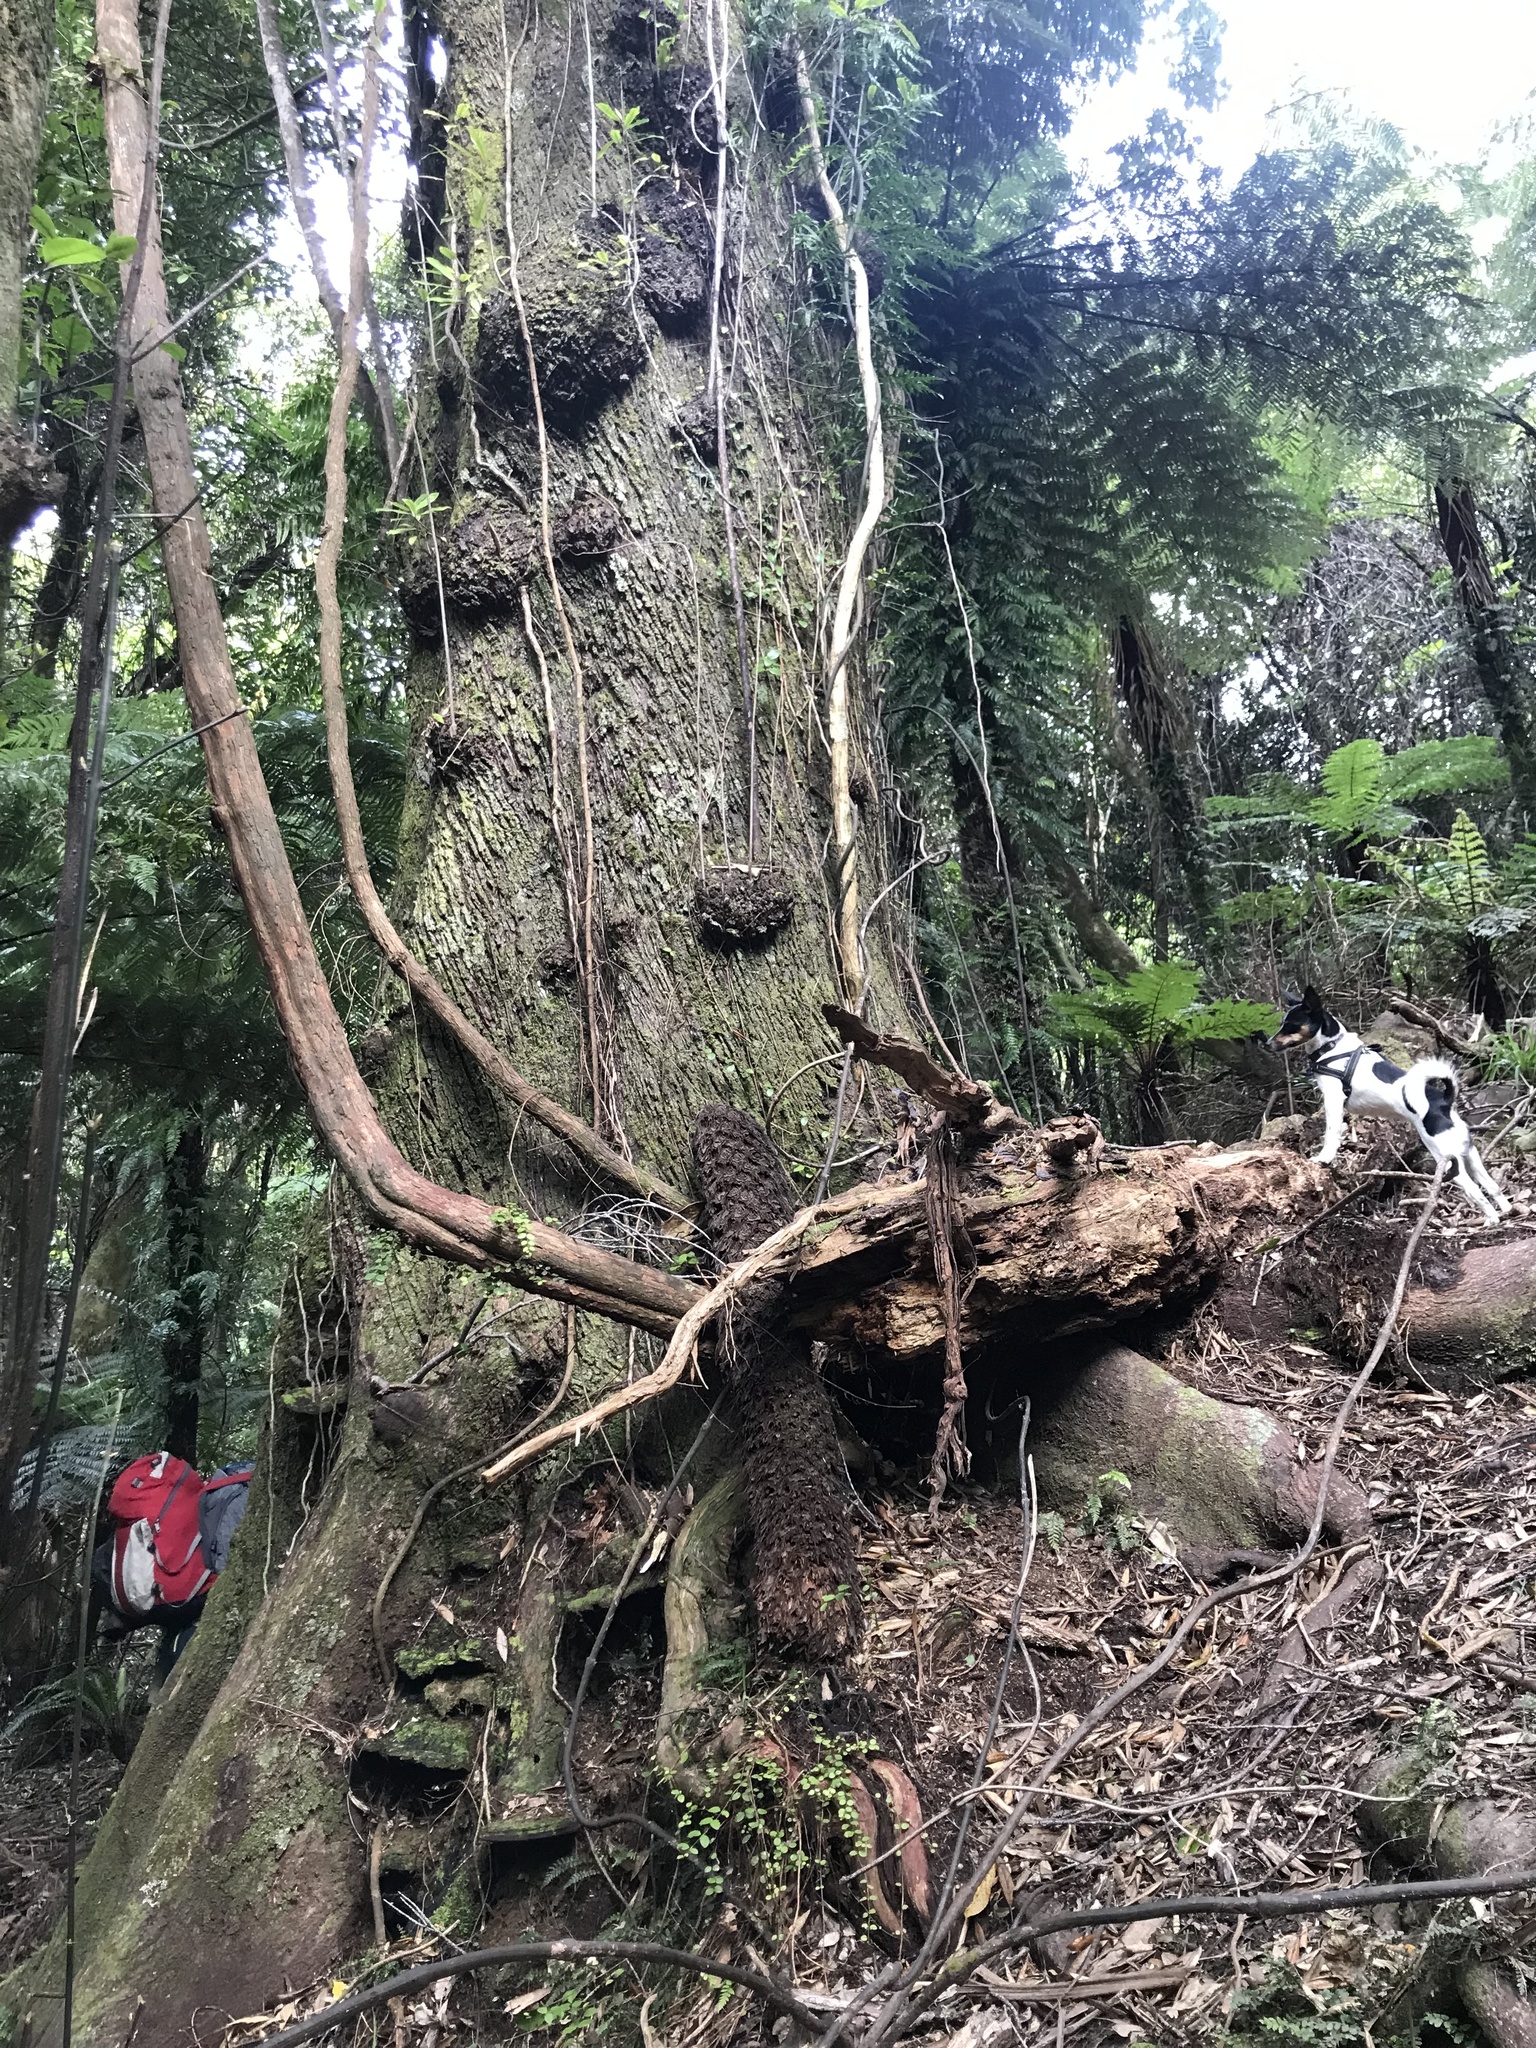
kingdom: Plantae
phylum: Tracheophyta
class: Magnoliopsida
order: Oxalidales
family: Elaeocarpaceae
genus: Elaeocarpus
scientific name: Elaeocarpus dentatus
